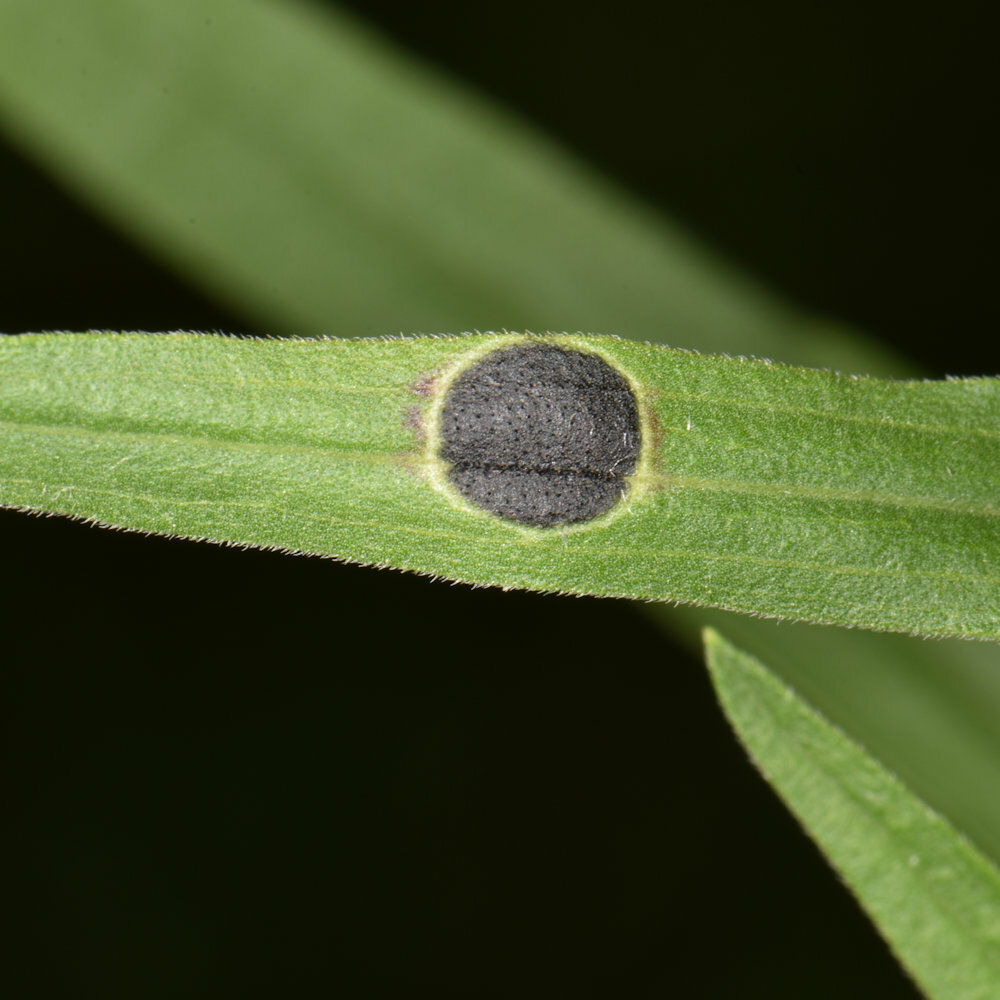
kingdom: Animalia
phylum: Arthropoda
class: Insecta
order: Diptera
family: Cecidomyiidae
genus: Asteromyia
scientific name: Asteromyia euthamiae
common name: Euthamia leaf gall midge
